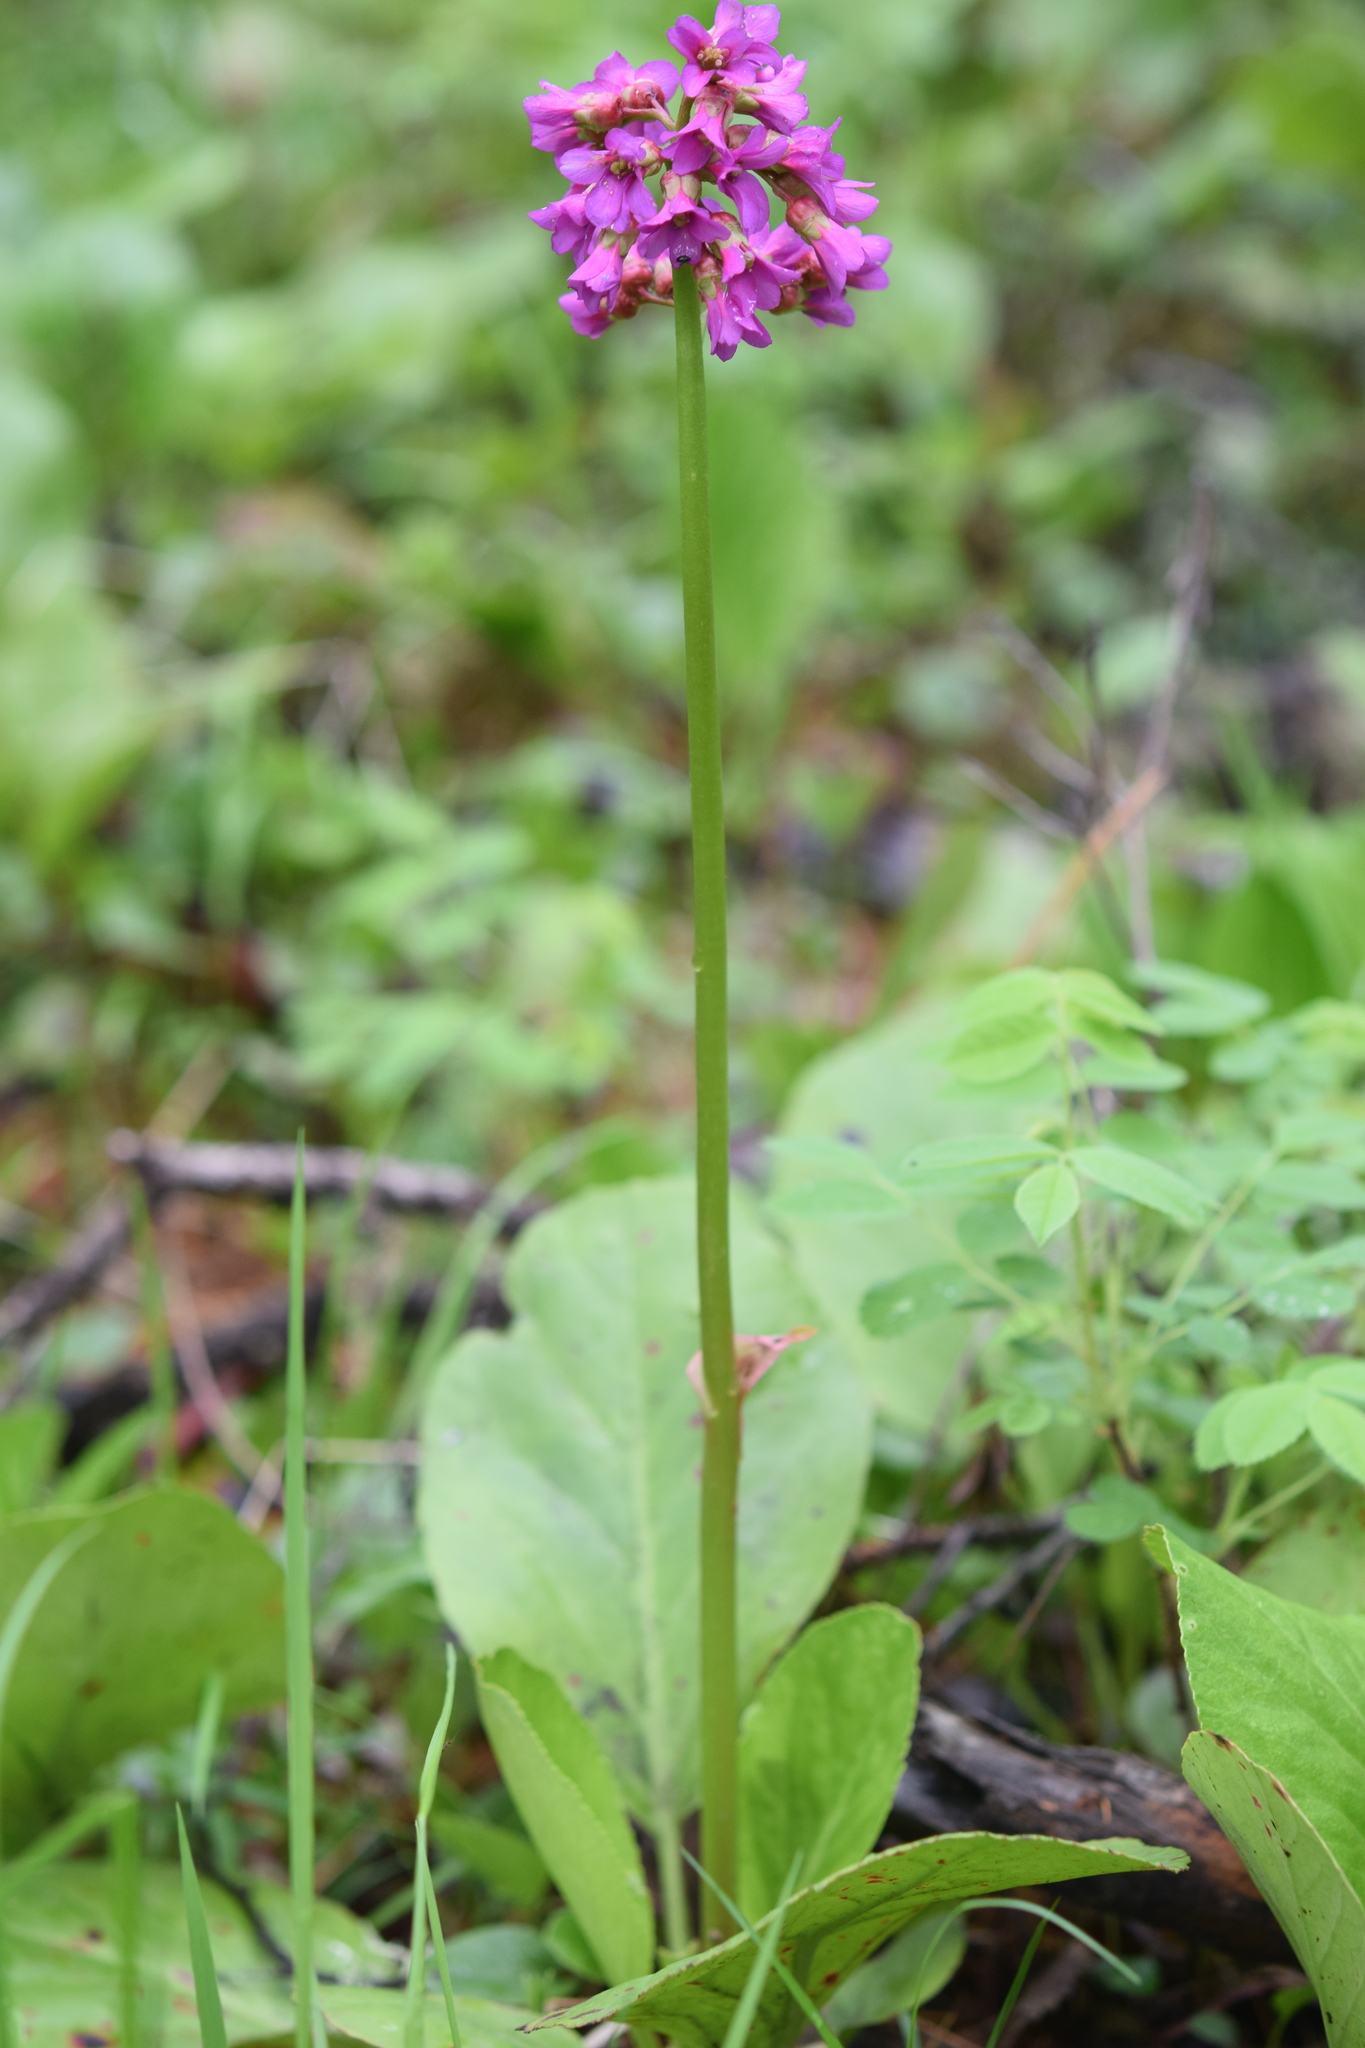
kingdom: Plantae
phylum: Tracheophyta
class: Magnoliopsida
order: Saxifragales
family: Saxifragaceae
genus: Bergenia
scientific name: Bergenia crassifolia
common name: Elephant-ears
